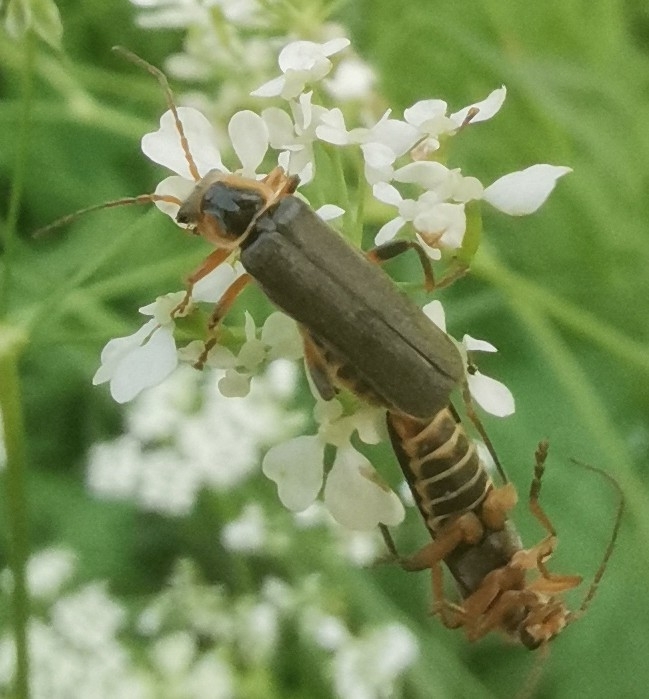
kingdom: Animalia
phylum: Arthropoda
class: Insecta
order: Coleoptera
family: Cantharidae
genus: Cantharis
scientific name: Cantharis nigricans
